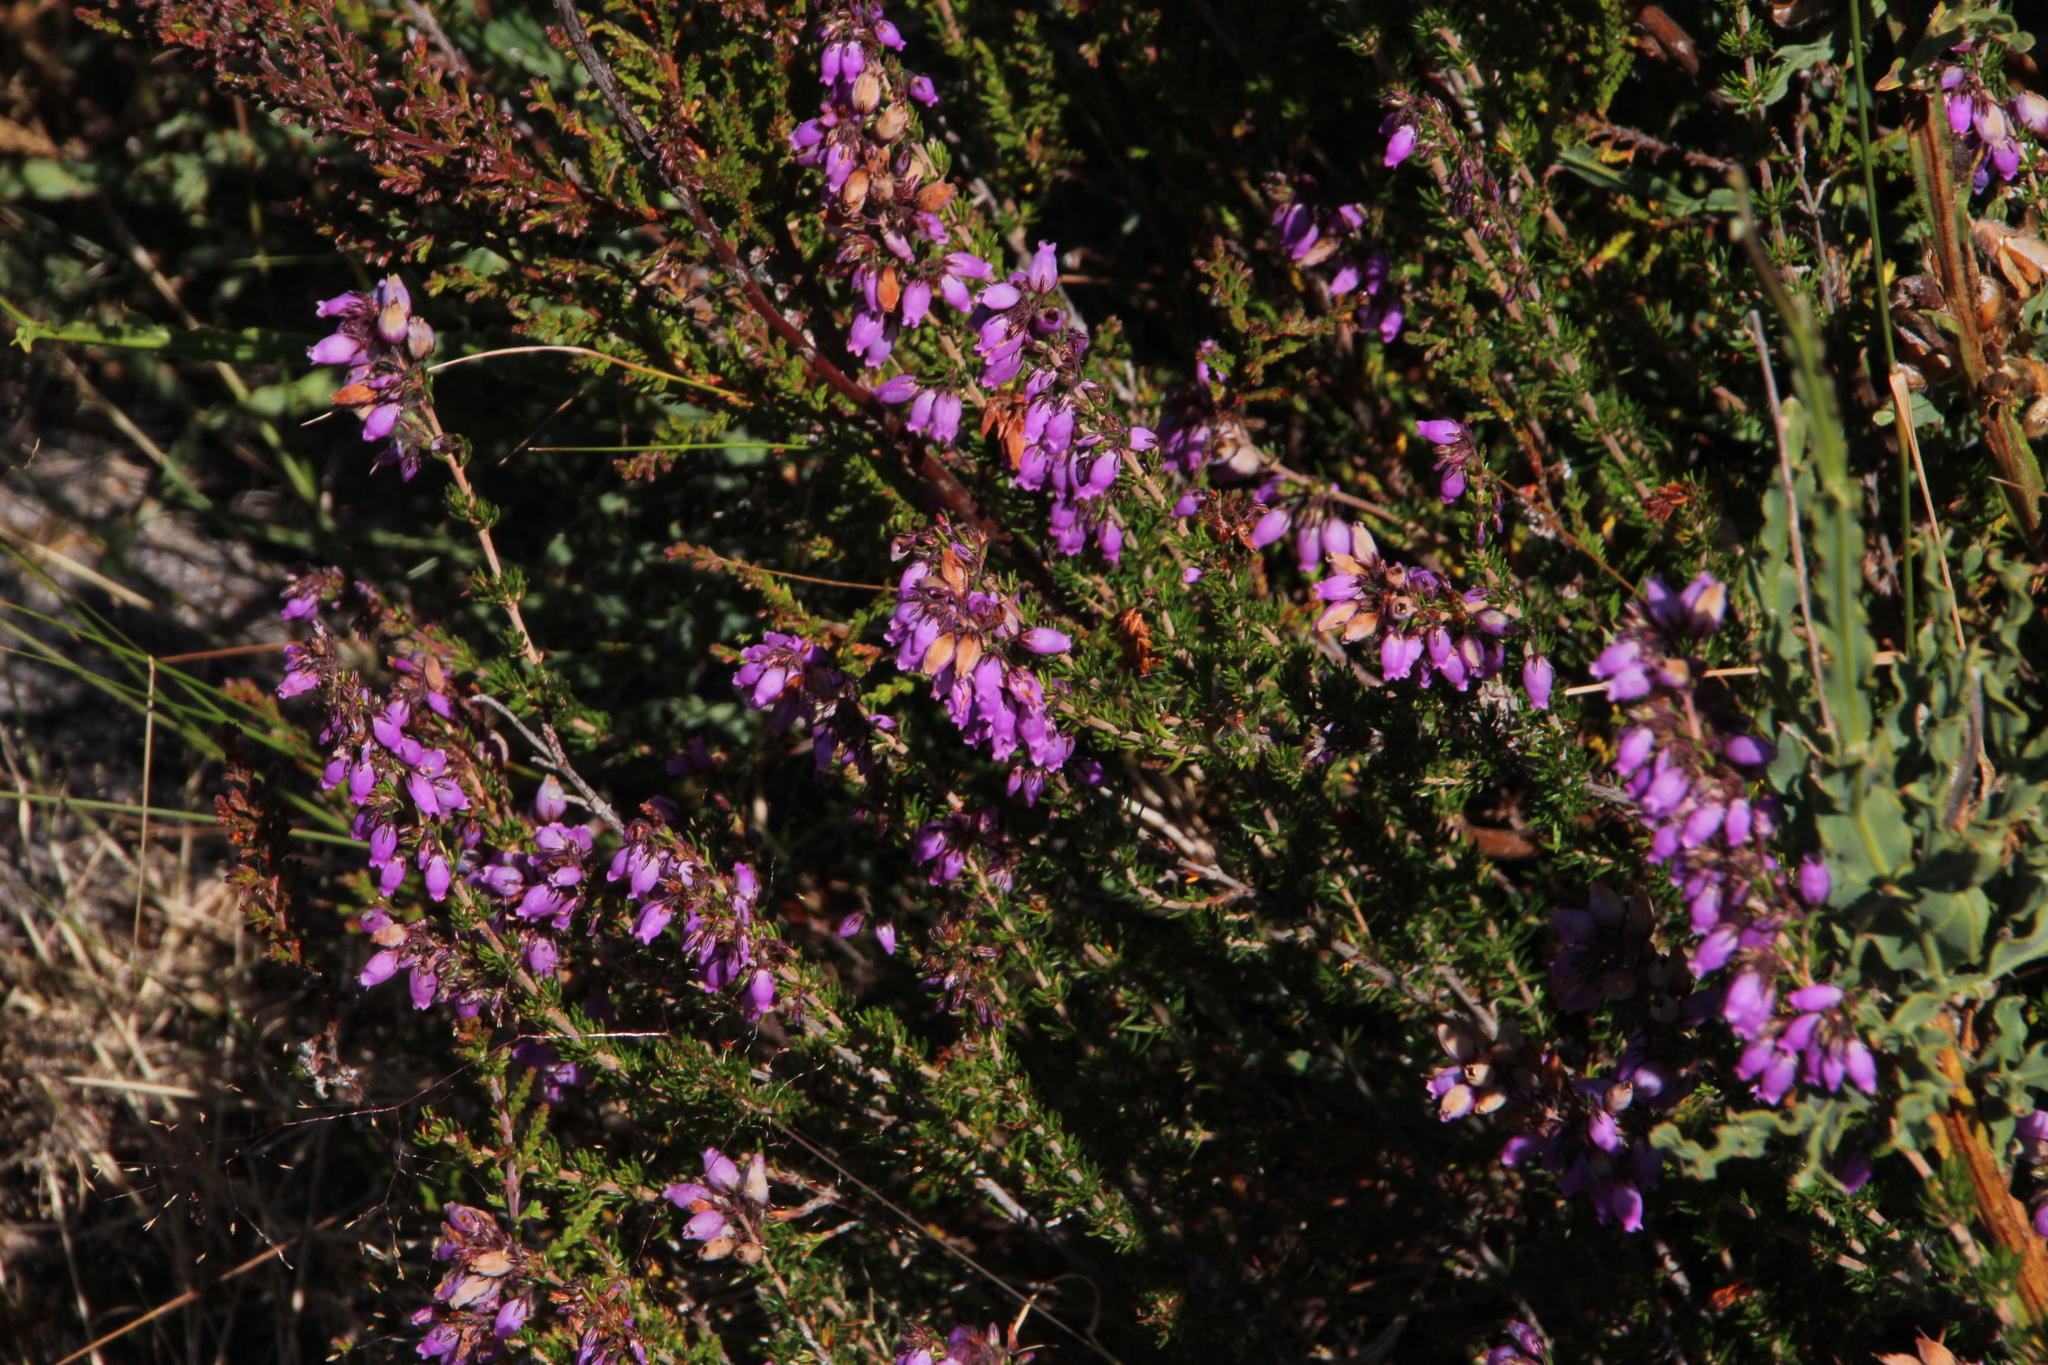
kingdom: Plantae
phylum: Tracheophyta
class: Magnoliopsida
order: Ericales
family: Ericaceae
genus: Erica
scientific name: Erica cinerea
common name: Bell heather
